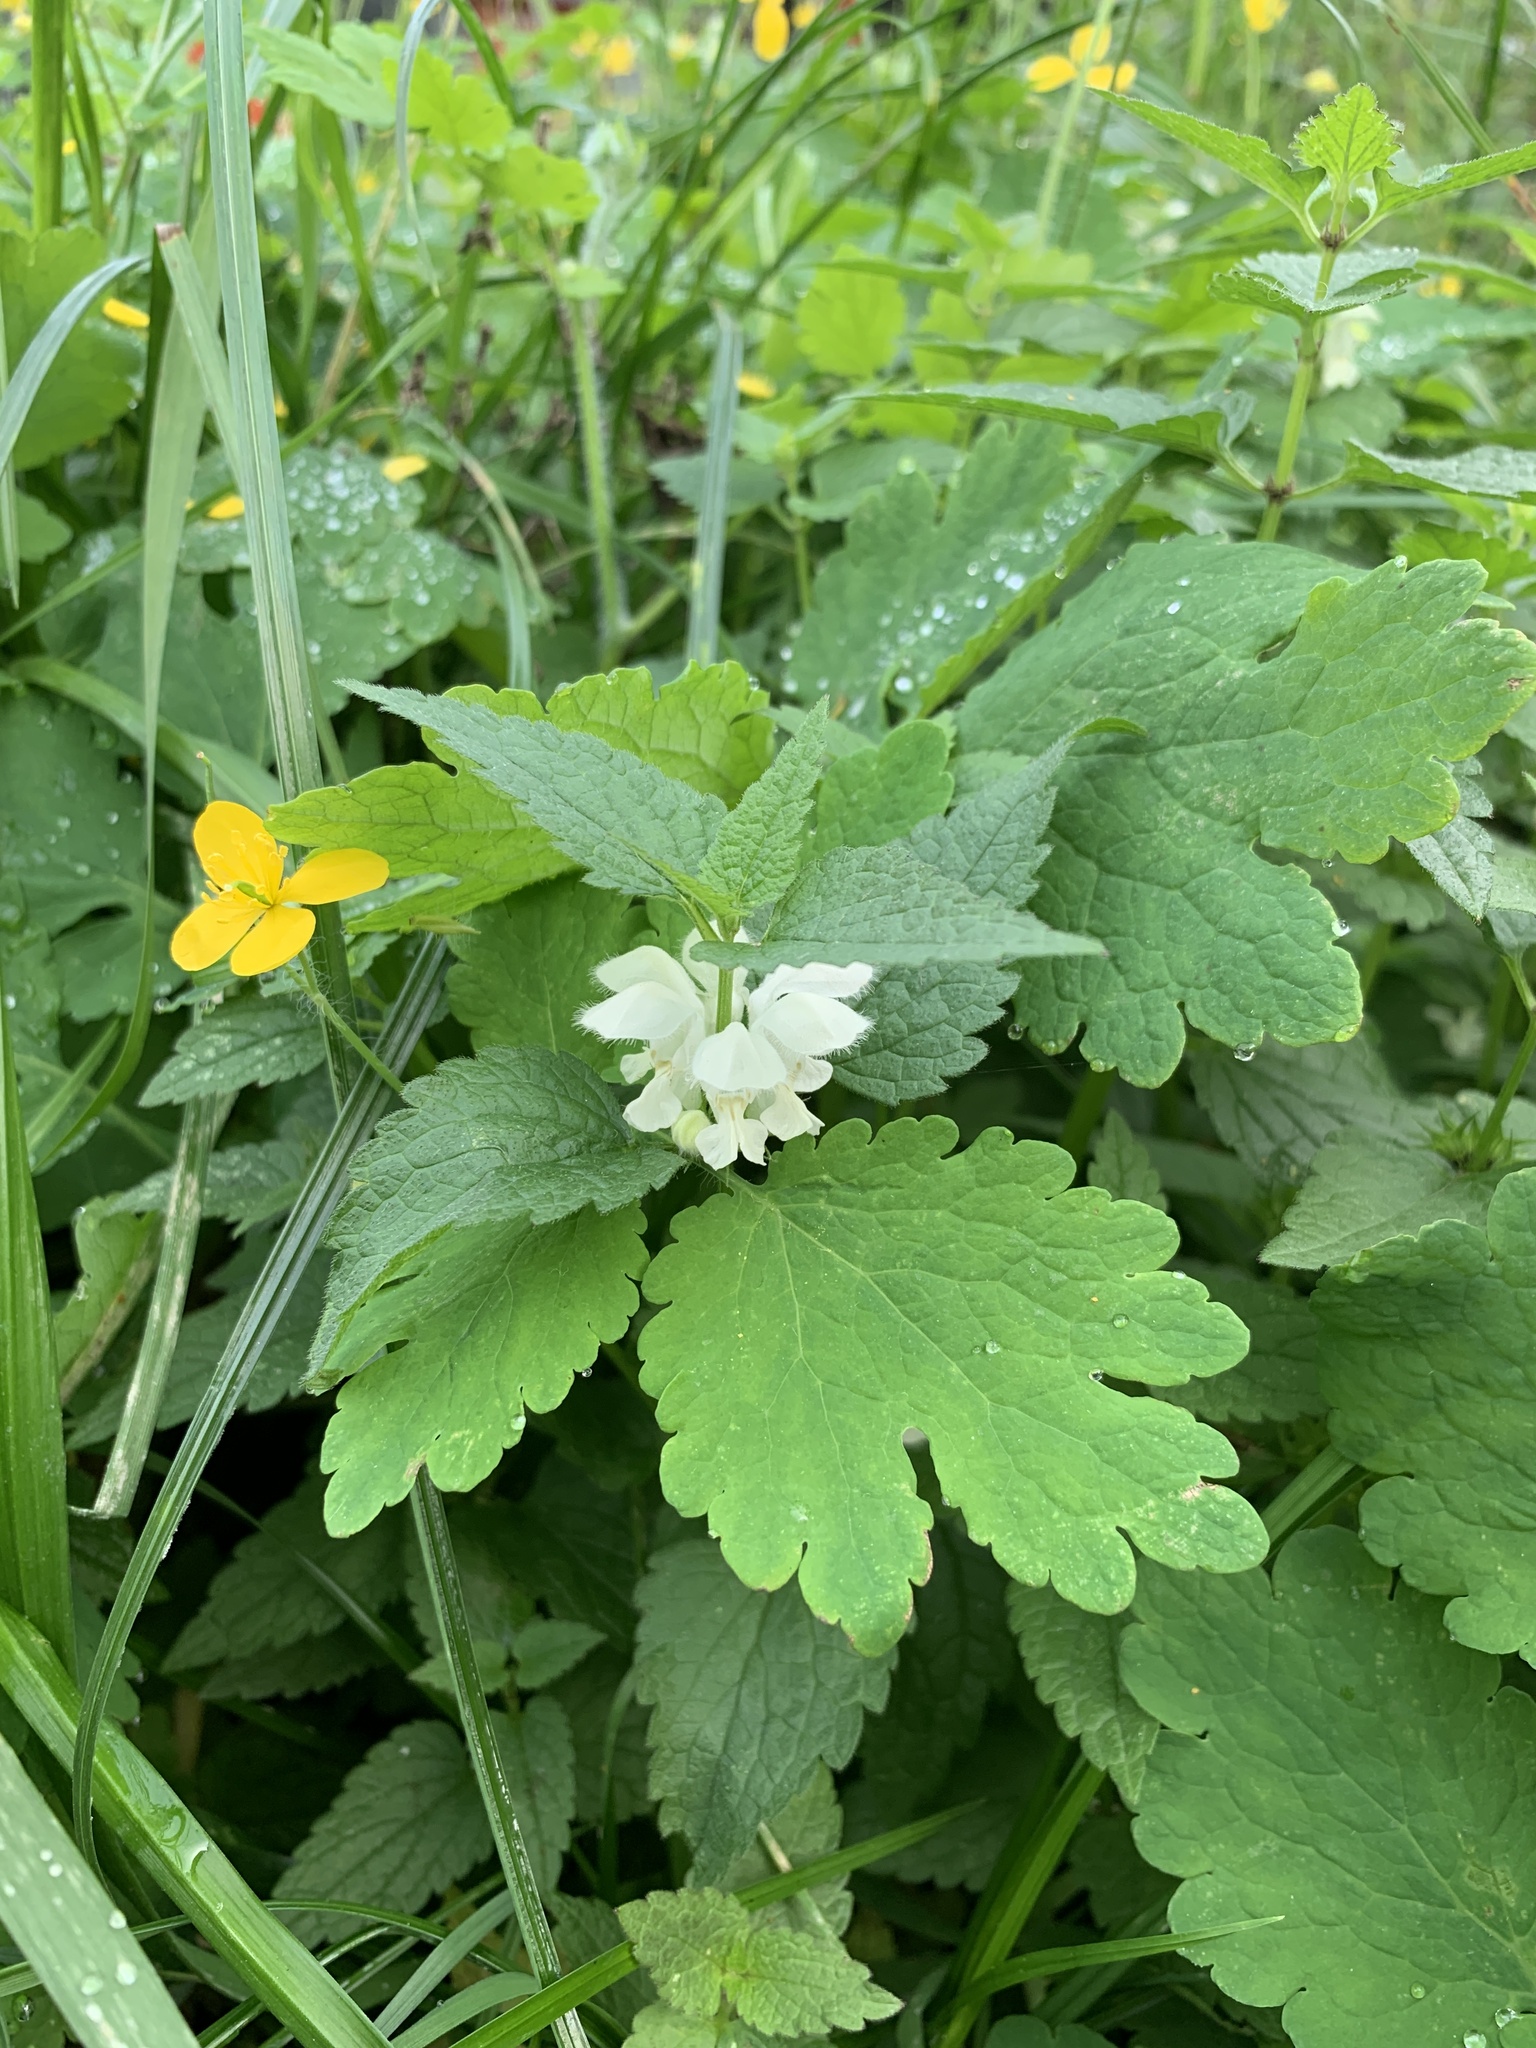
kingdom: Plantae
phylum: Tracheophyta
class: Magnoliopsida
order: Lamiales
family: Lamiaceae
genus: Lamium
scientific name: Lamium album
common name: White dead-nettle
